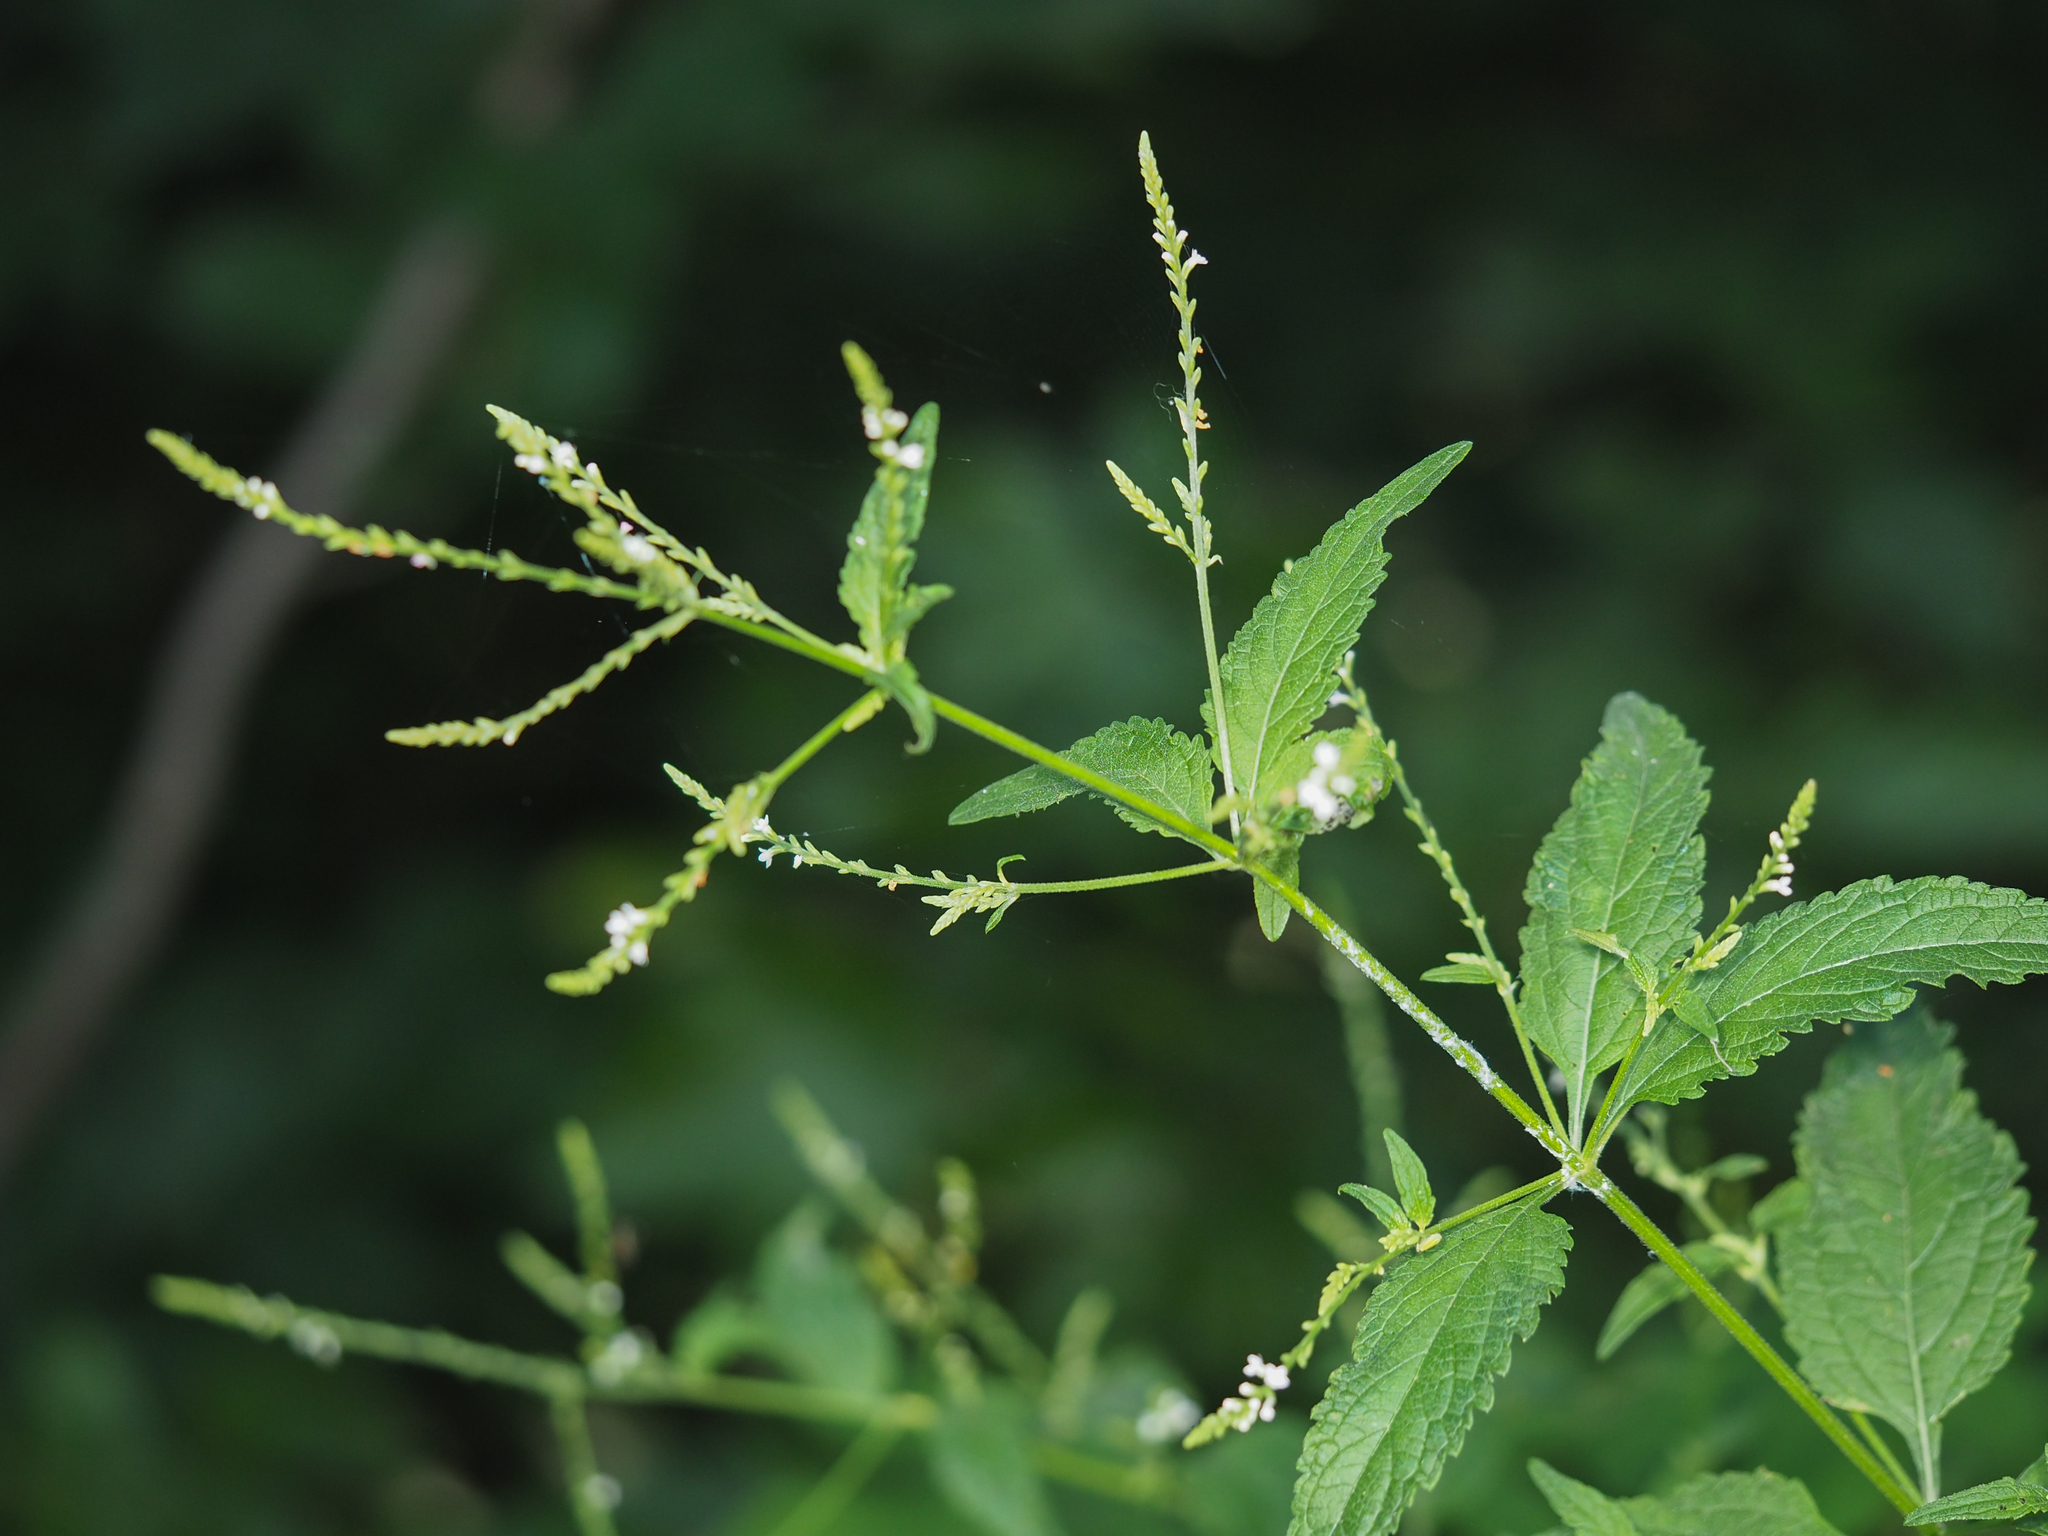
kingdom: Plantae
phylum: Tracheophyta
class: Magnoliopsida
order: Lamiales
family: Verbenaceae
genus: Verbena
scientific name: Verbena urticifolia
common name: Nettle-leaved vervain
